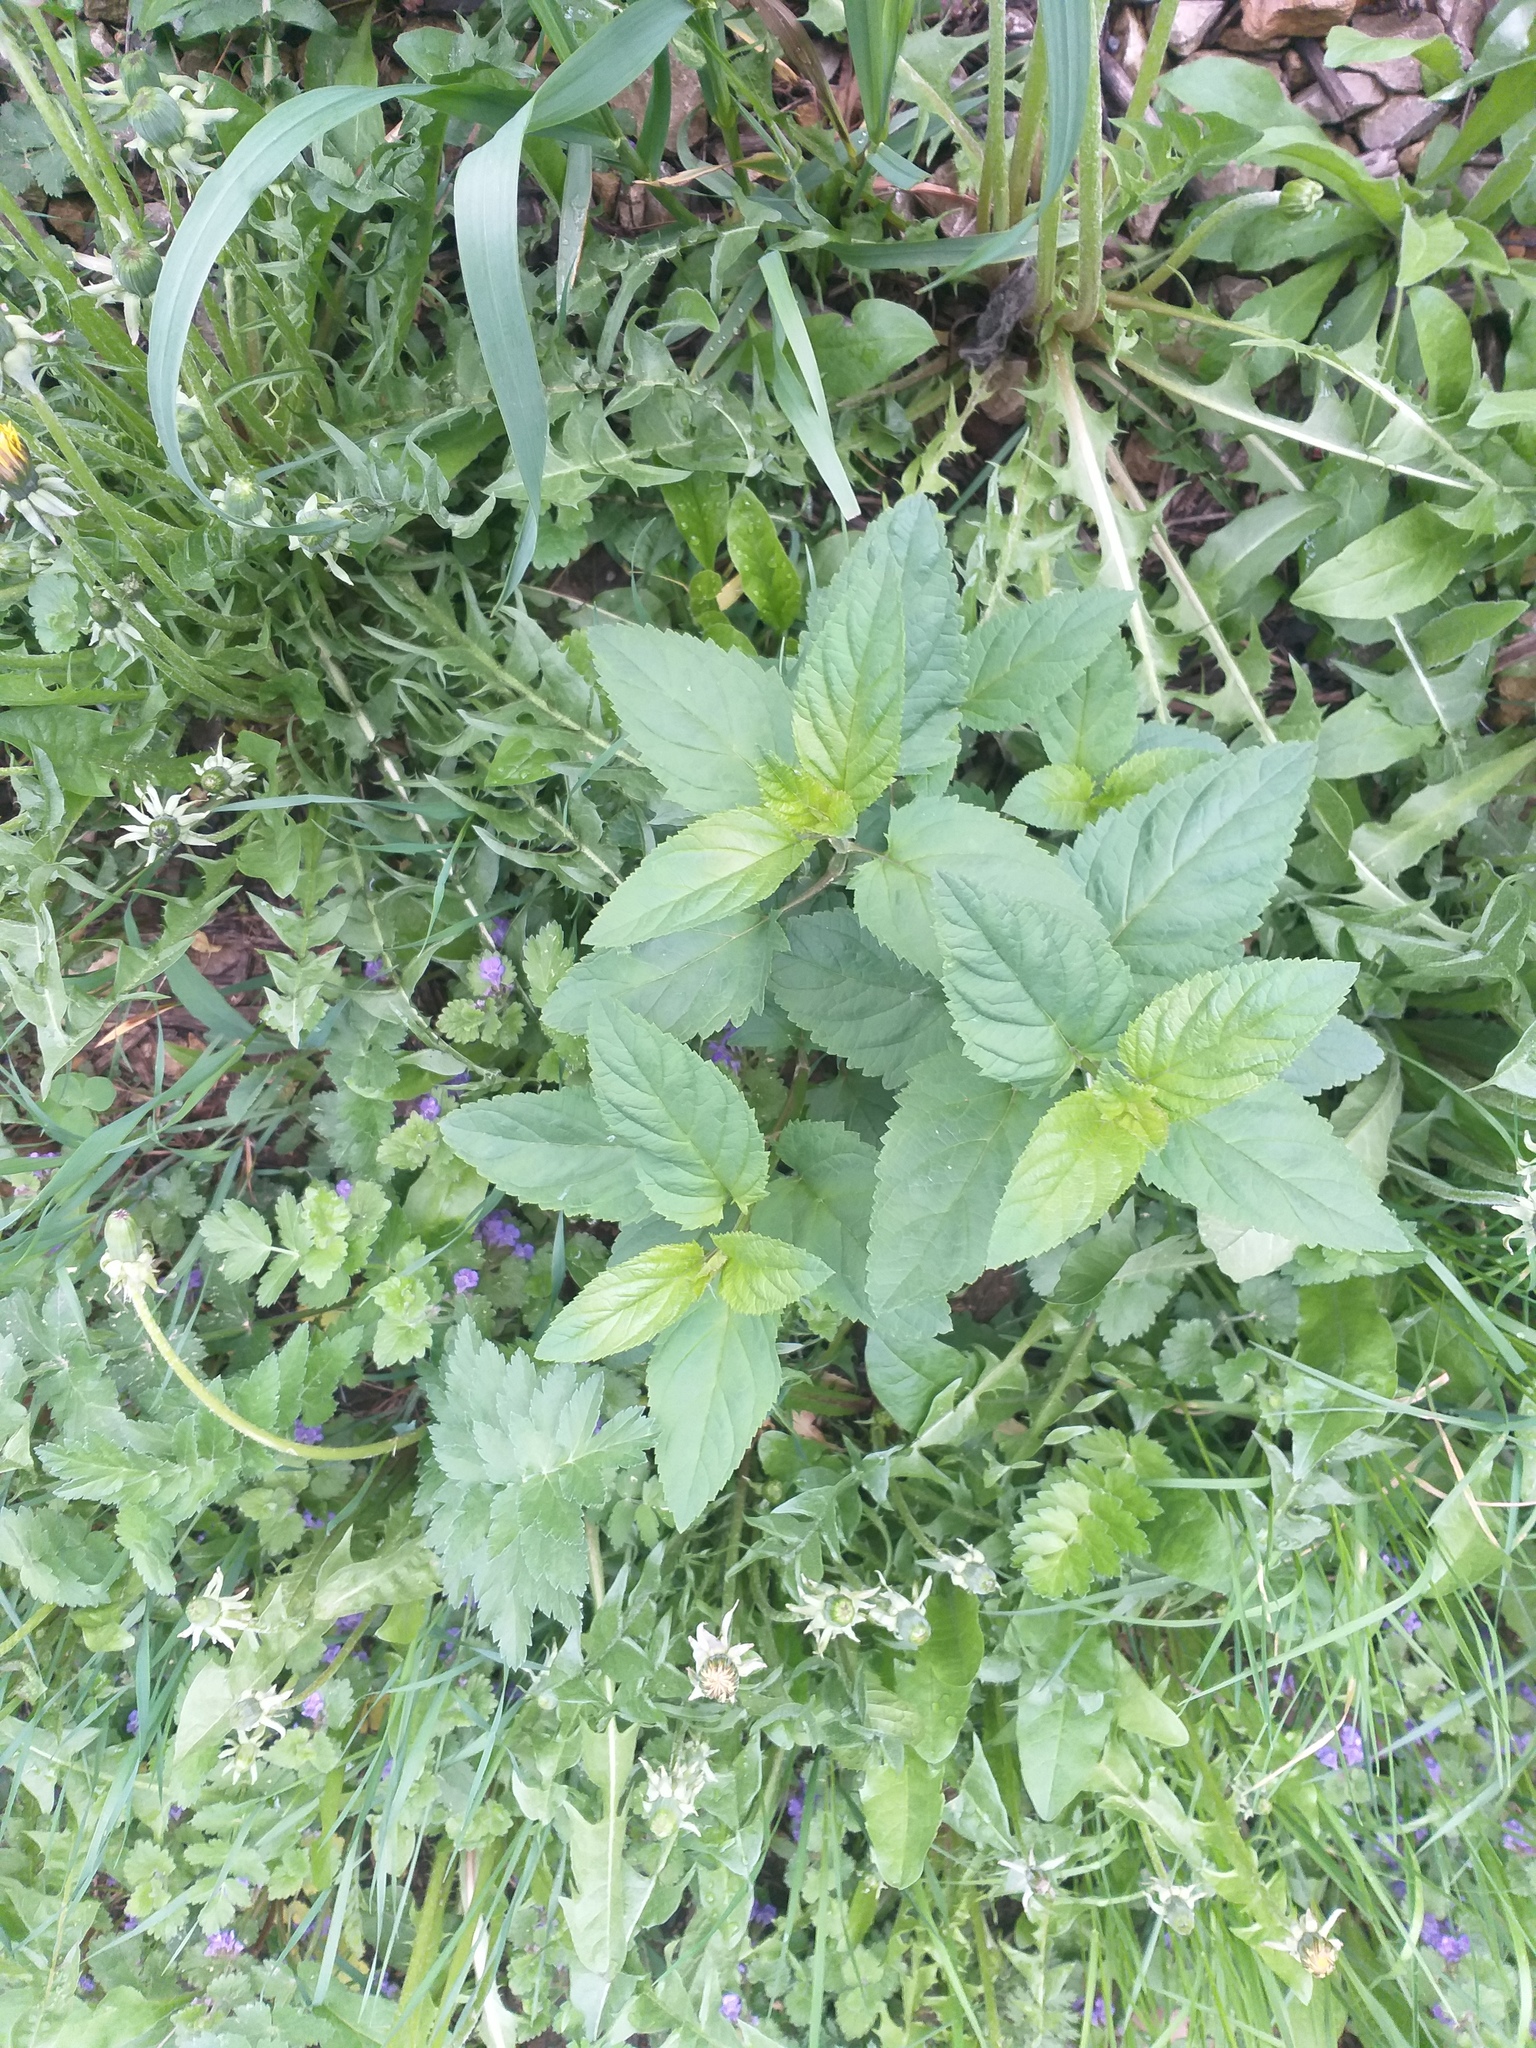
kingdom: Plantae
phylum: Tracheophyta
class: Magnoliopsida
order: Lamiales
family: Scrophulariaceae
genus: Scrophularia
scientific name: Scrophularia nodosa
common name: Common figwort
